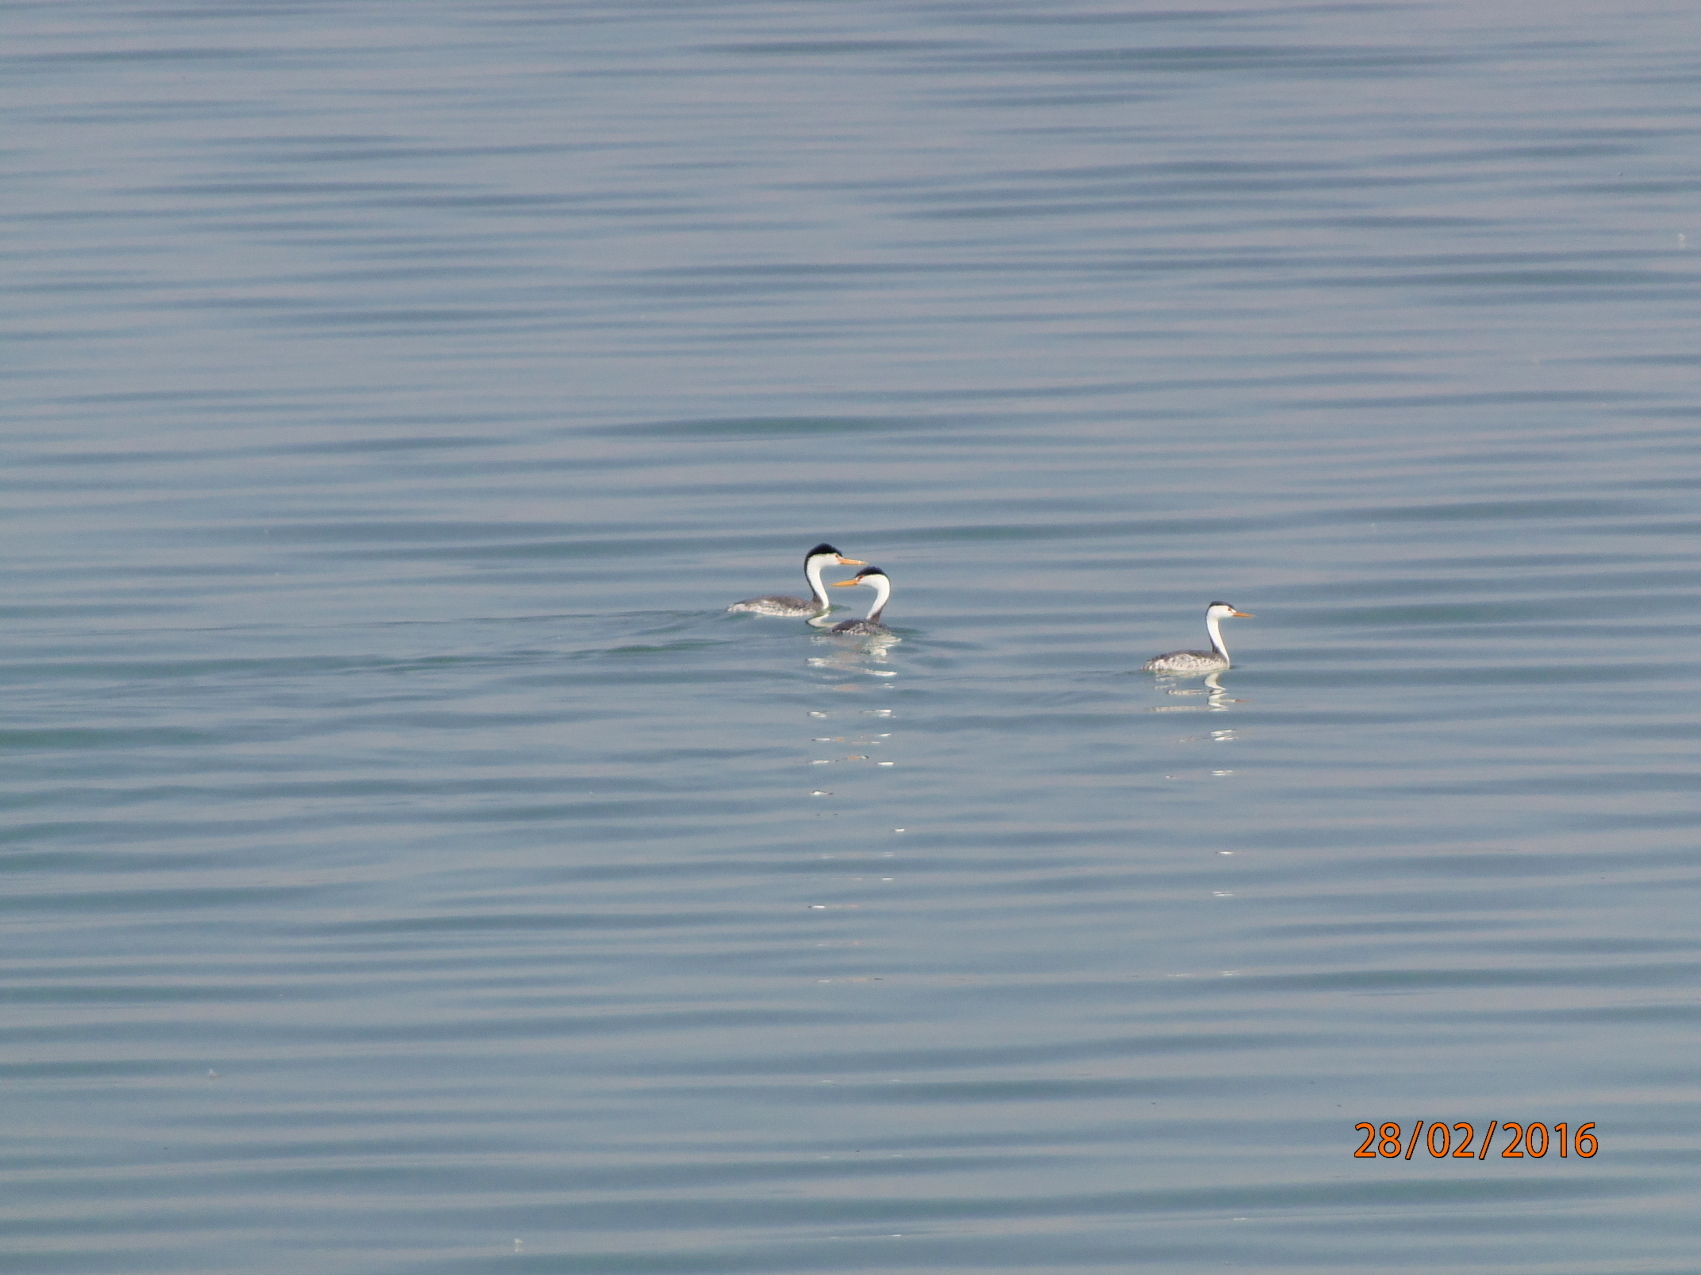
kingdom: Animalia
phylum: Chordata
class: Aves
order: Podicipediformes
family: Podicipedidae
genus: Aechmophorus
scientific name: Aechmophorus clarkii
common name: Clark's grebe
